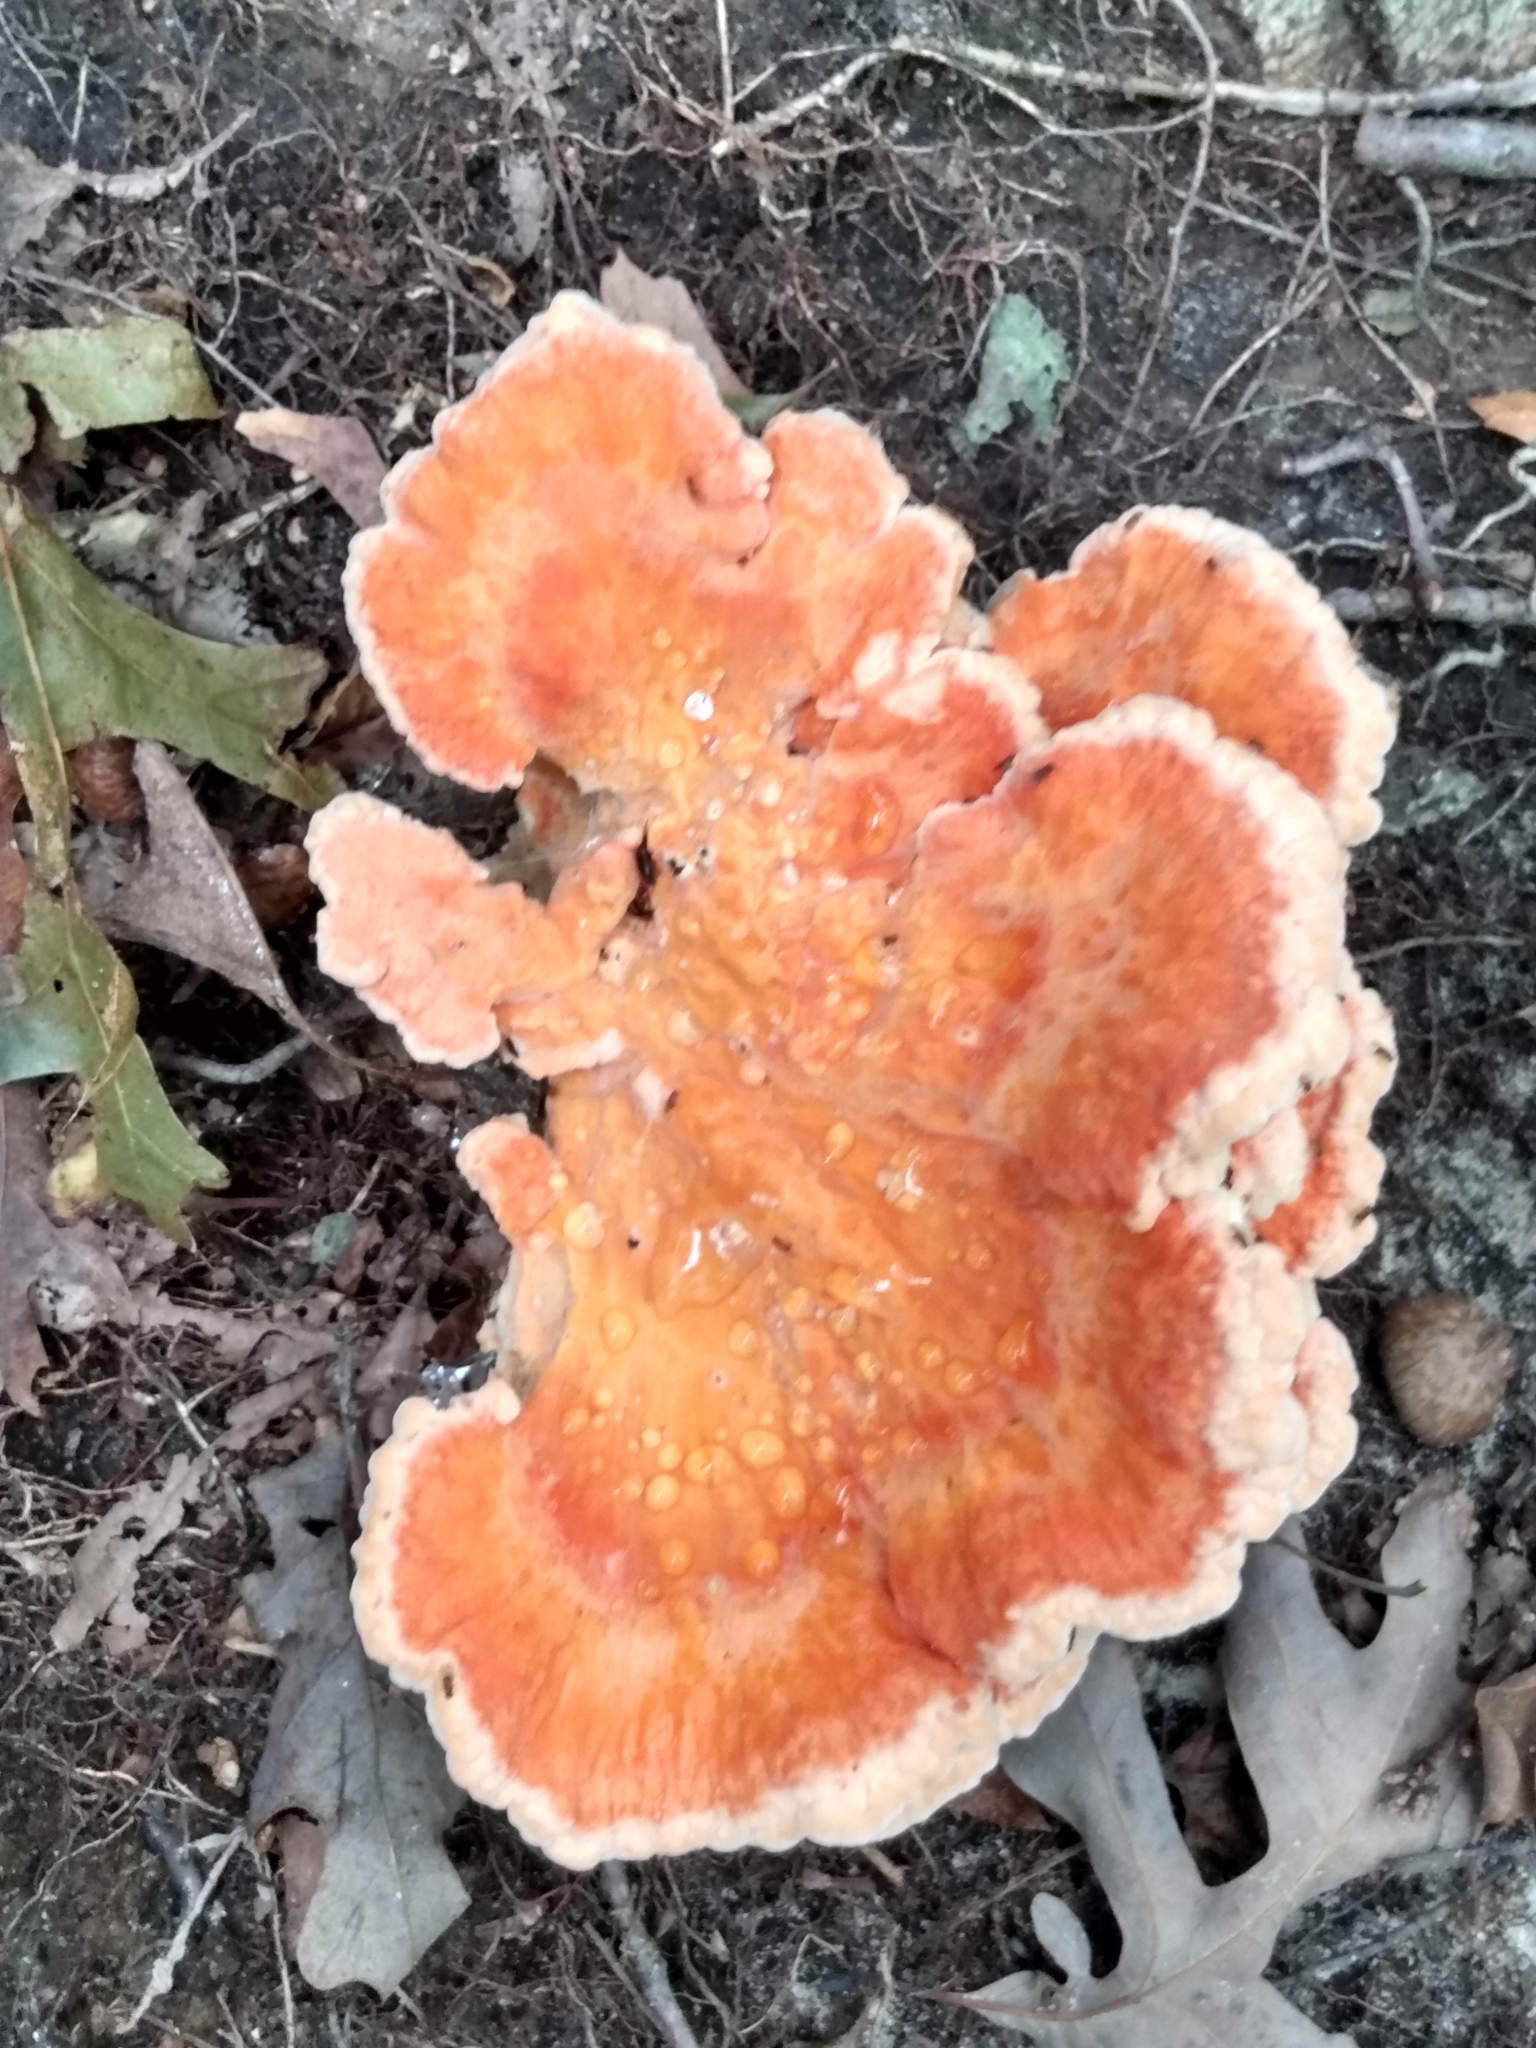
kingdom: Fungi
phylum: Basidiomycota
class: Agaricomycetes
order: Polyporales
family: Laetiporaceae
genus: Laetiporus
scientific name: Laetiporus sulphureus
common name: Chicken of the woods
